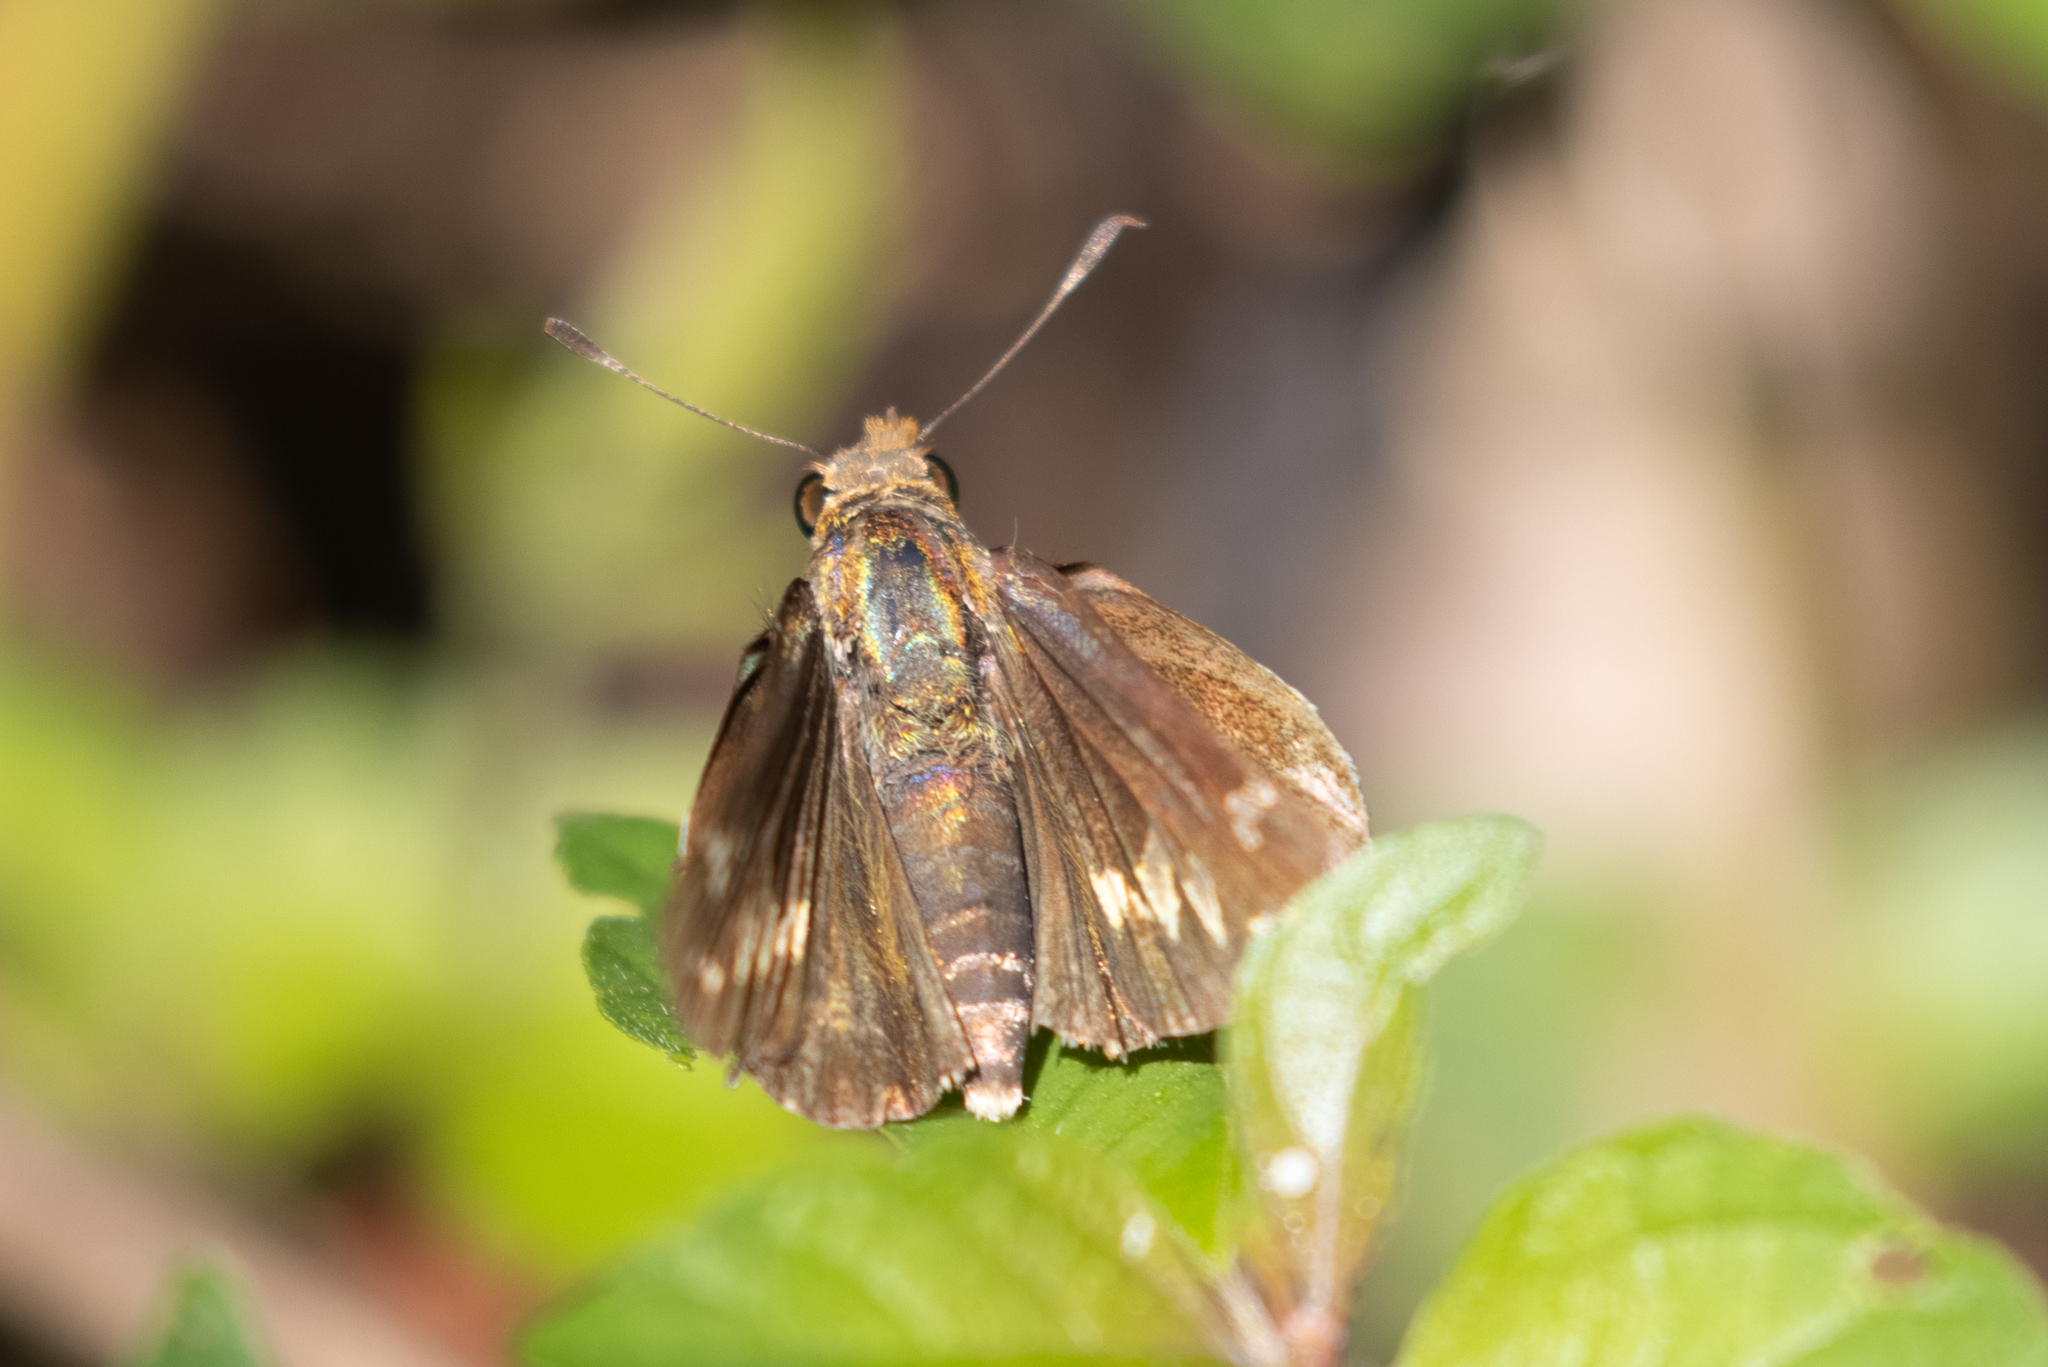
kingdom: Animalia
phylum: Arthropoda
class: Insecta
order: Lepidoptera
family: Hesperiidae
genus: Lon
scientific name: Lon zabulon
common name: Zabulon skipper
